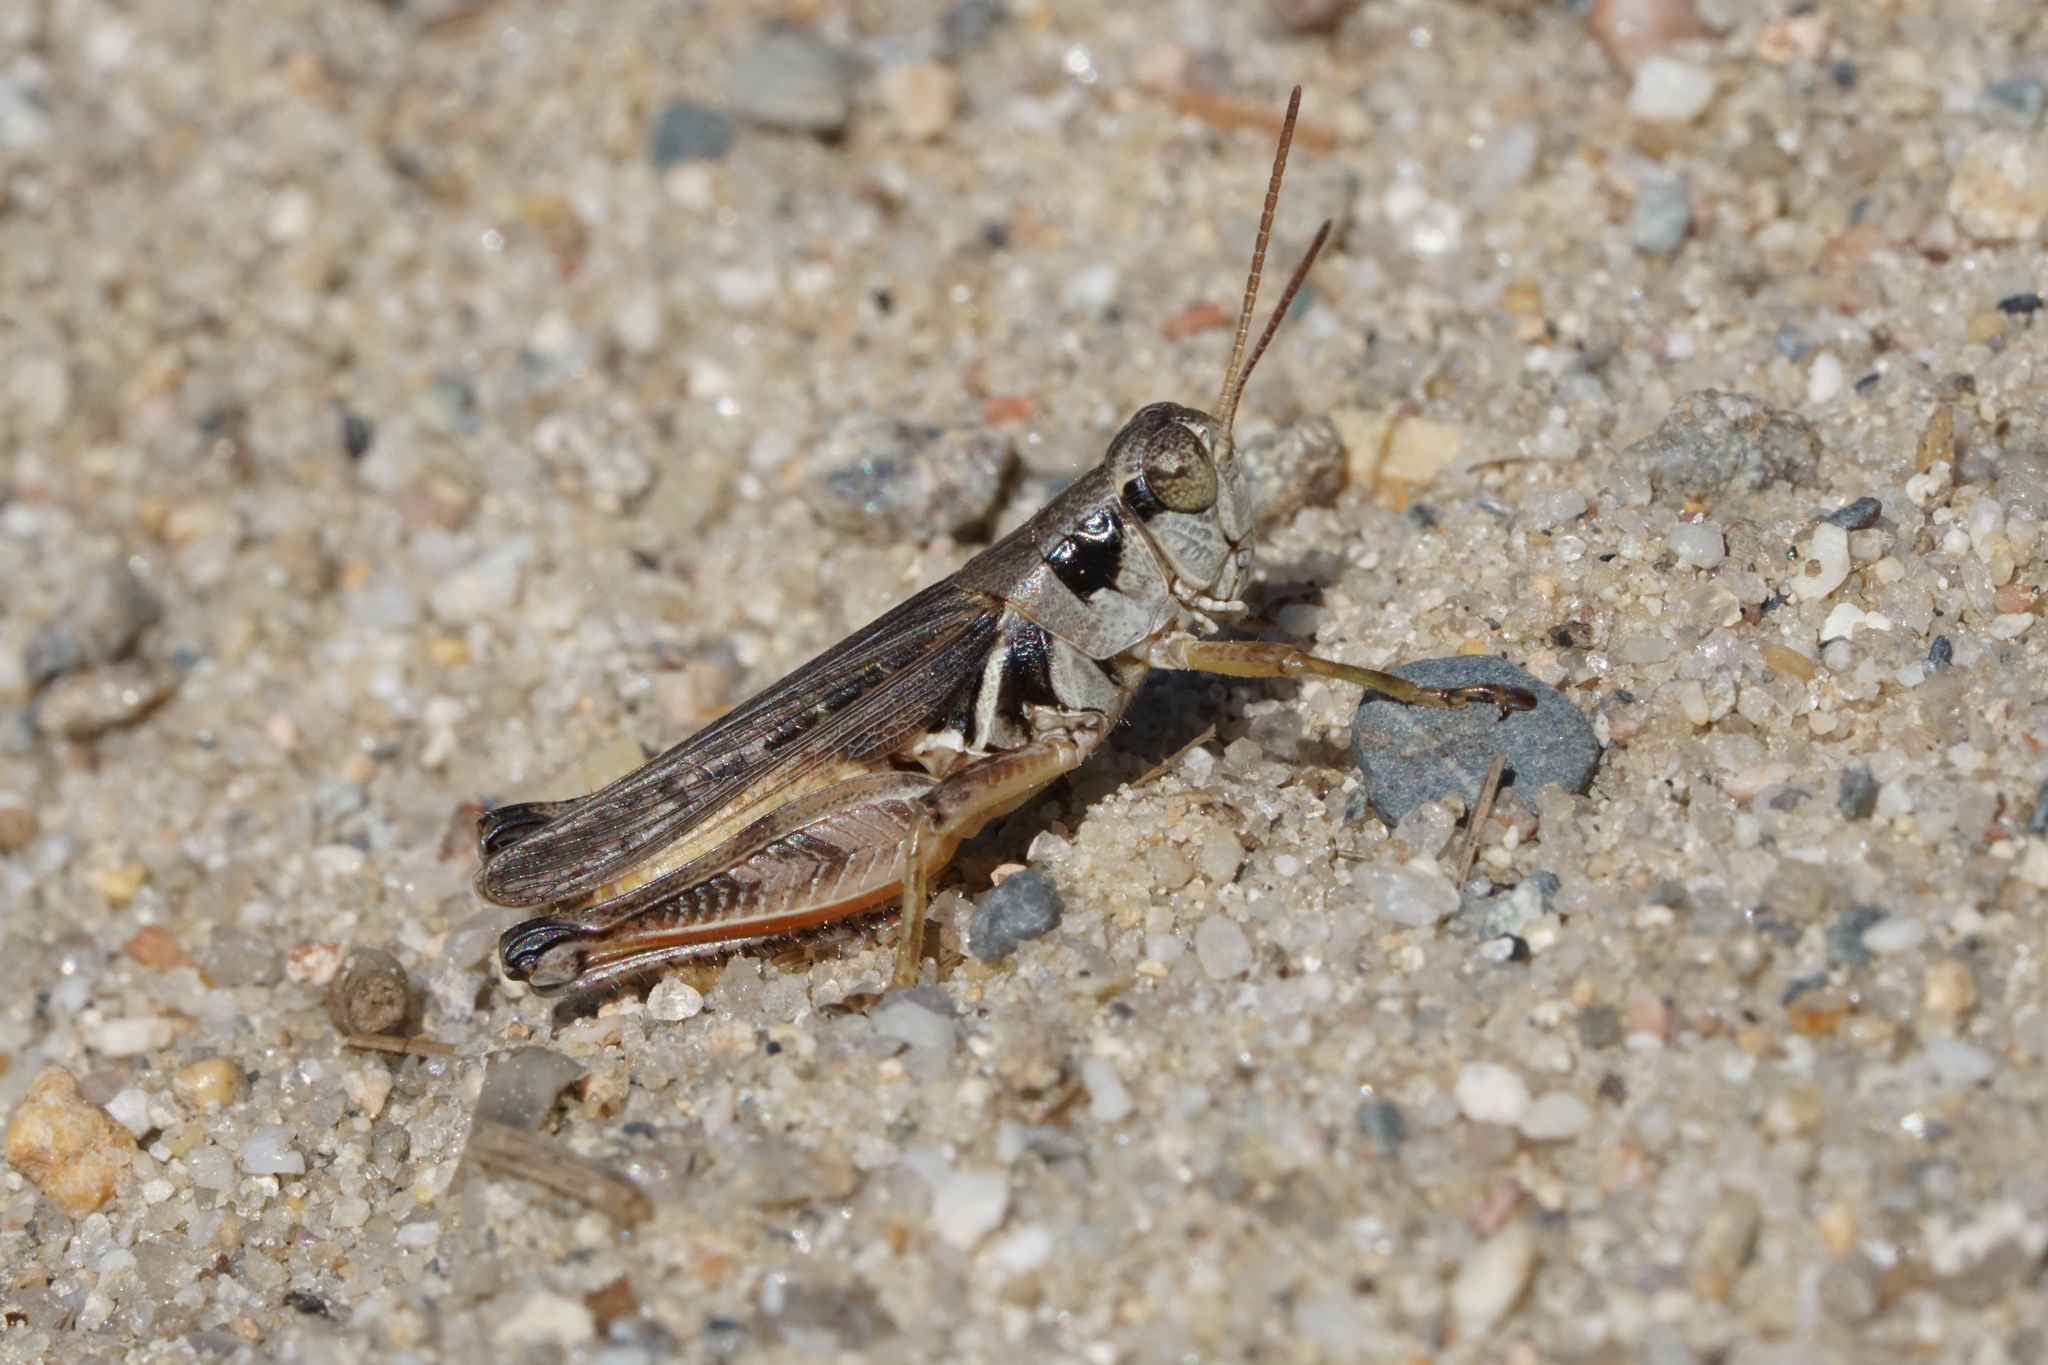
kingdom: Animalia
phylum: Arthropoda
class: Insecta
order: Orthoptera
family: Acrididae
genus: Melanoplus
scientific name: Melanoplus confusus
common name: Little pasture locust
